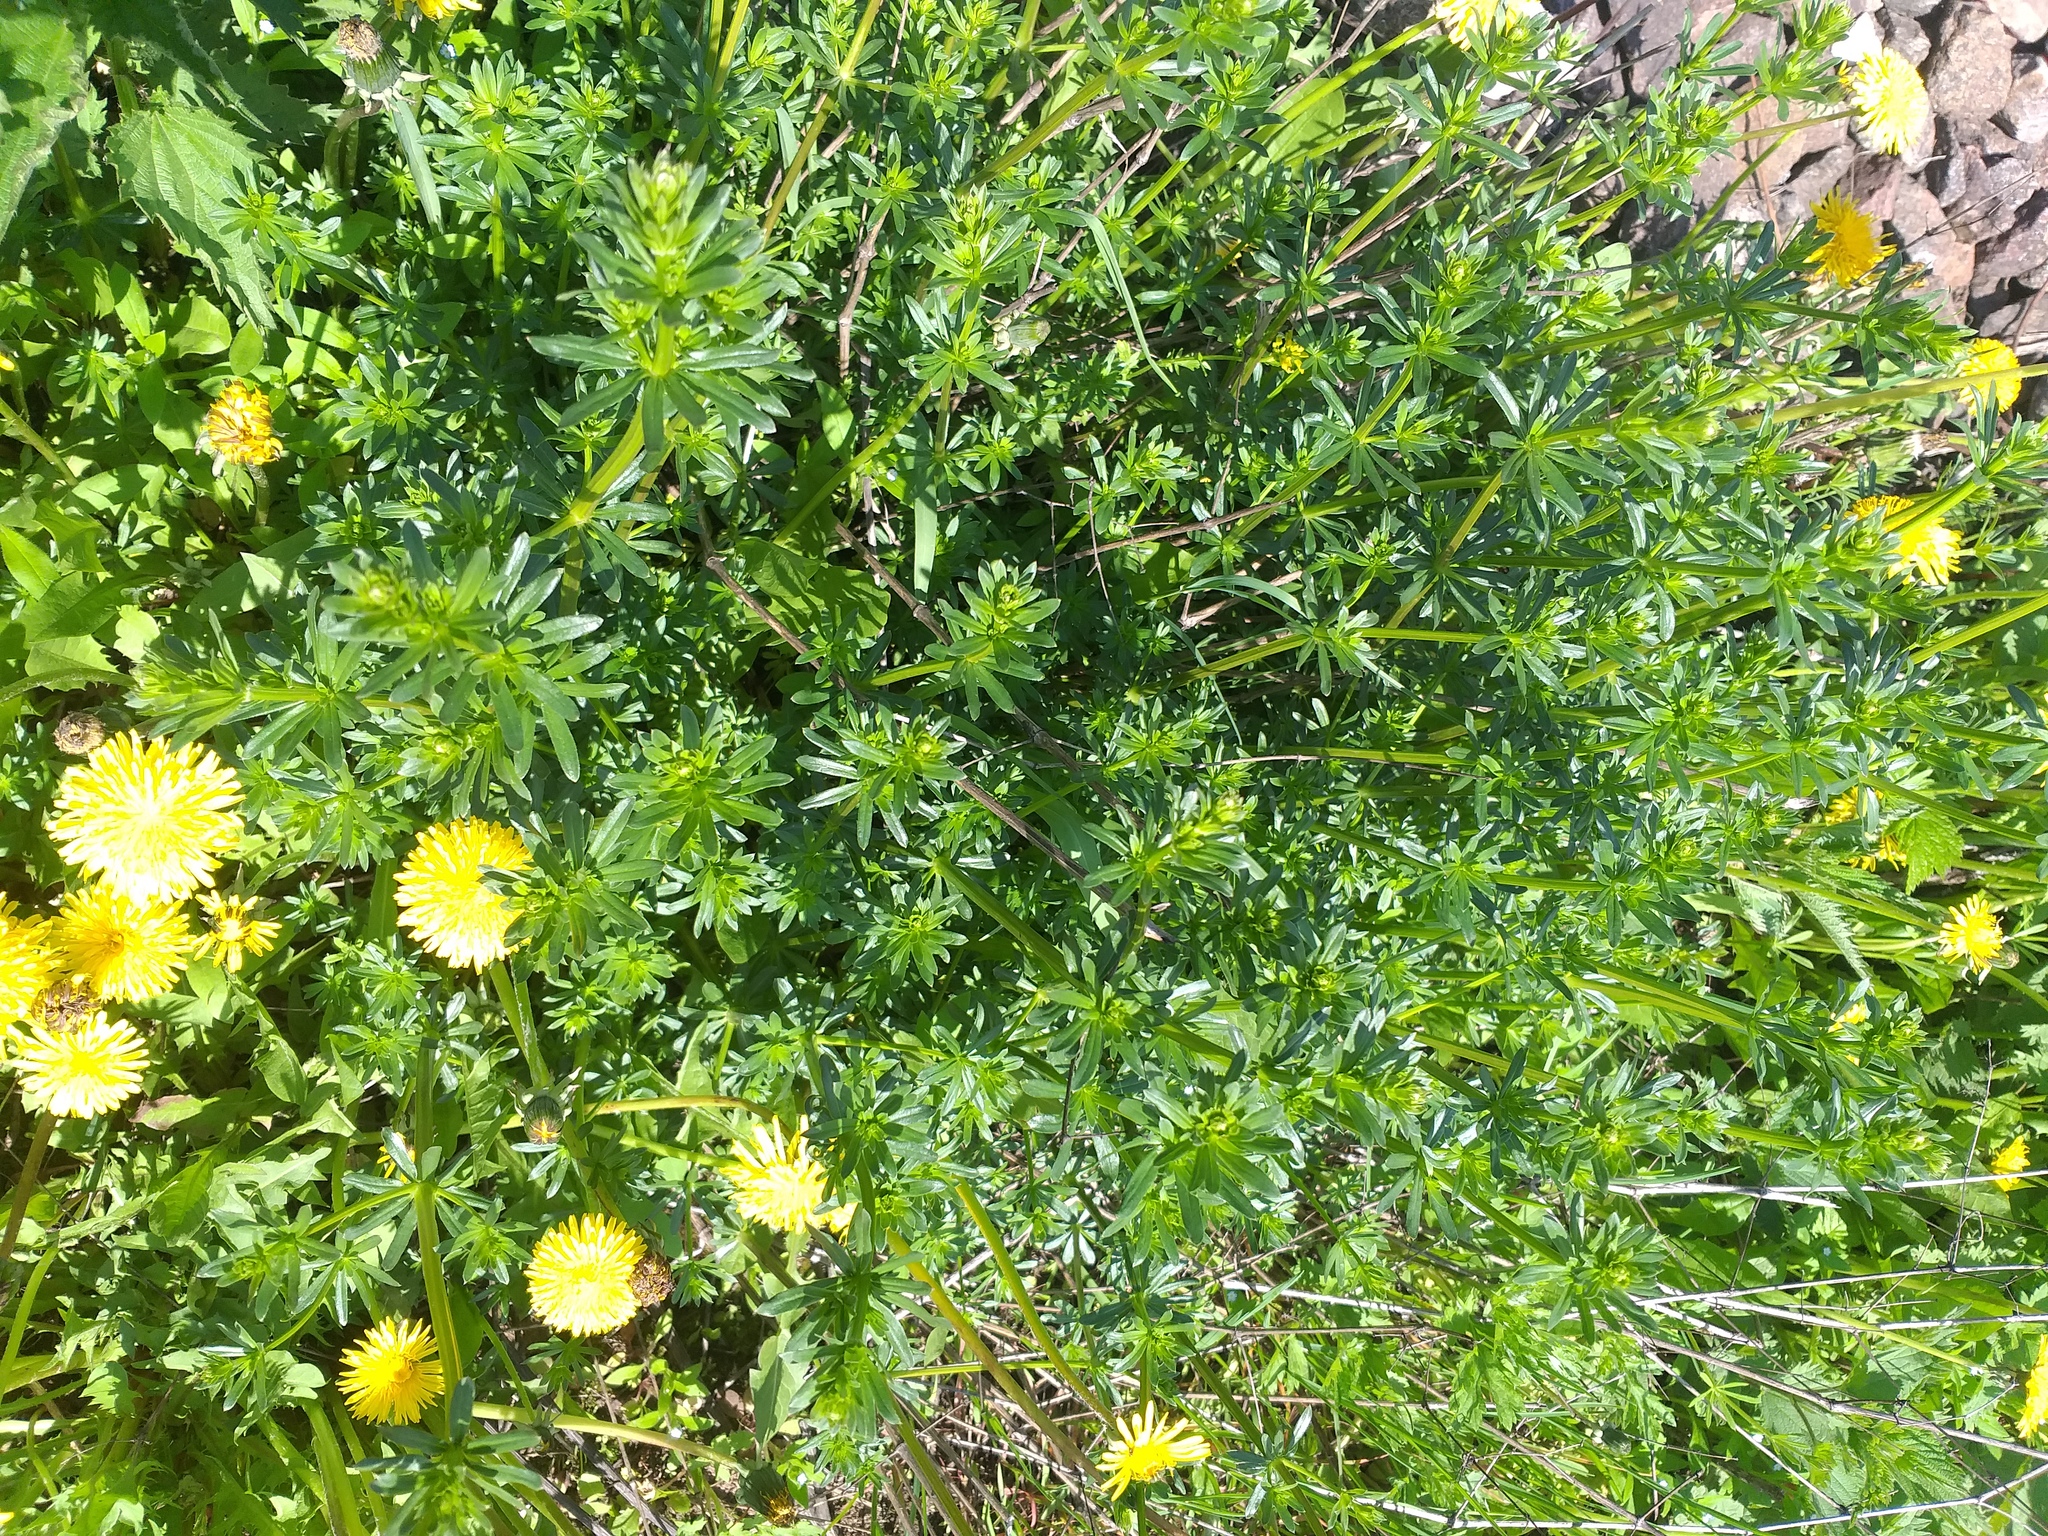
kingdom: Plantae
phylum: Tracheophyta
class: Magnoliopsida
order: Gentianales
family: Rubiaceae
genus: Galium
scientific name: Galium mollugo
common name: Hedge bedstraw
